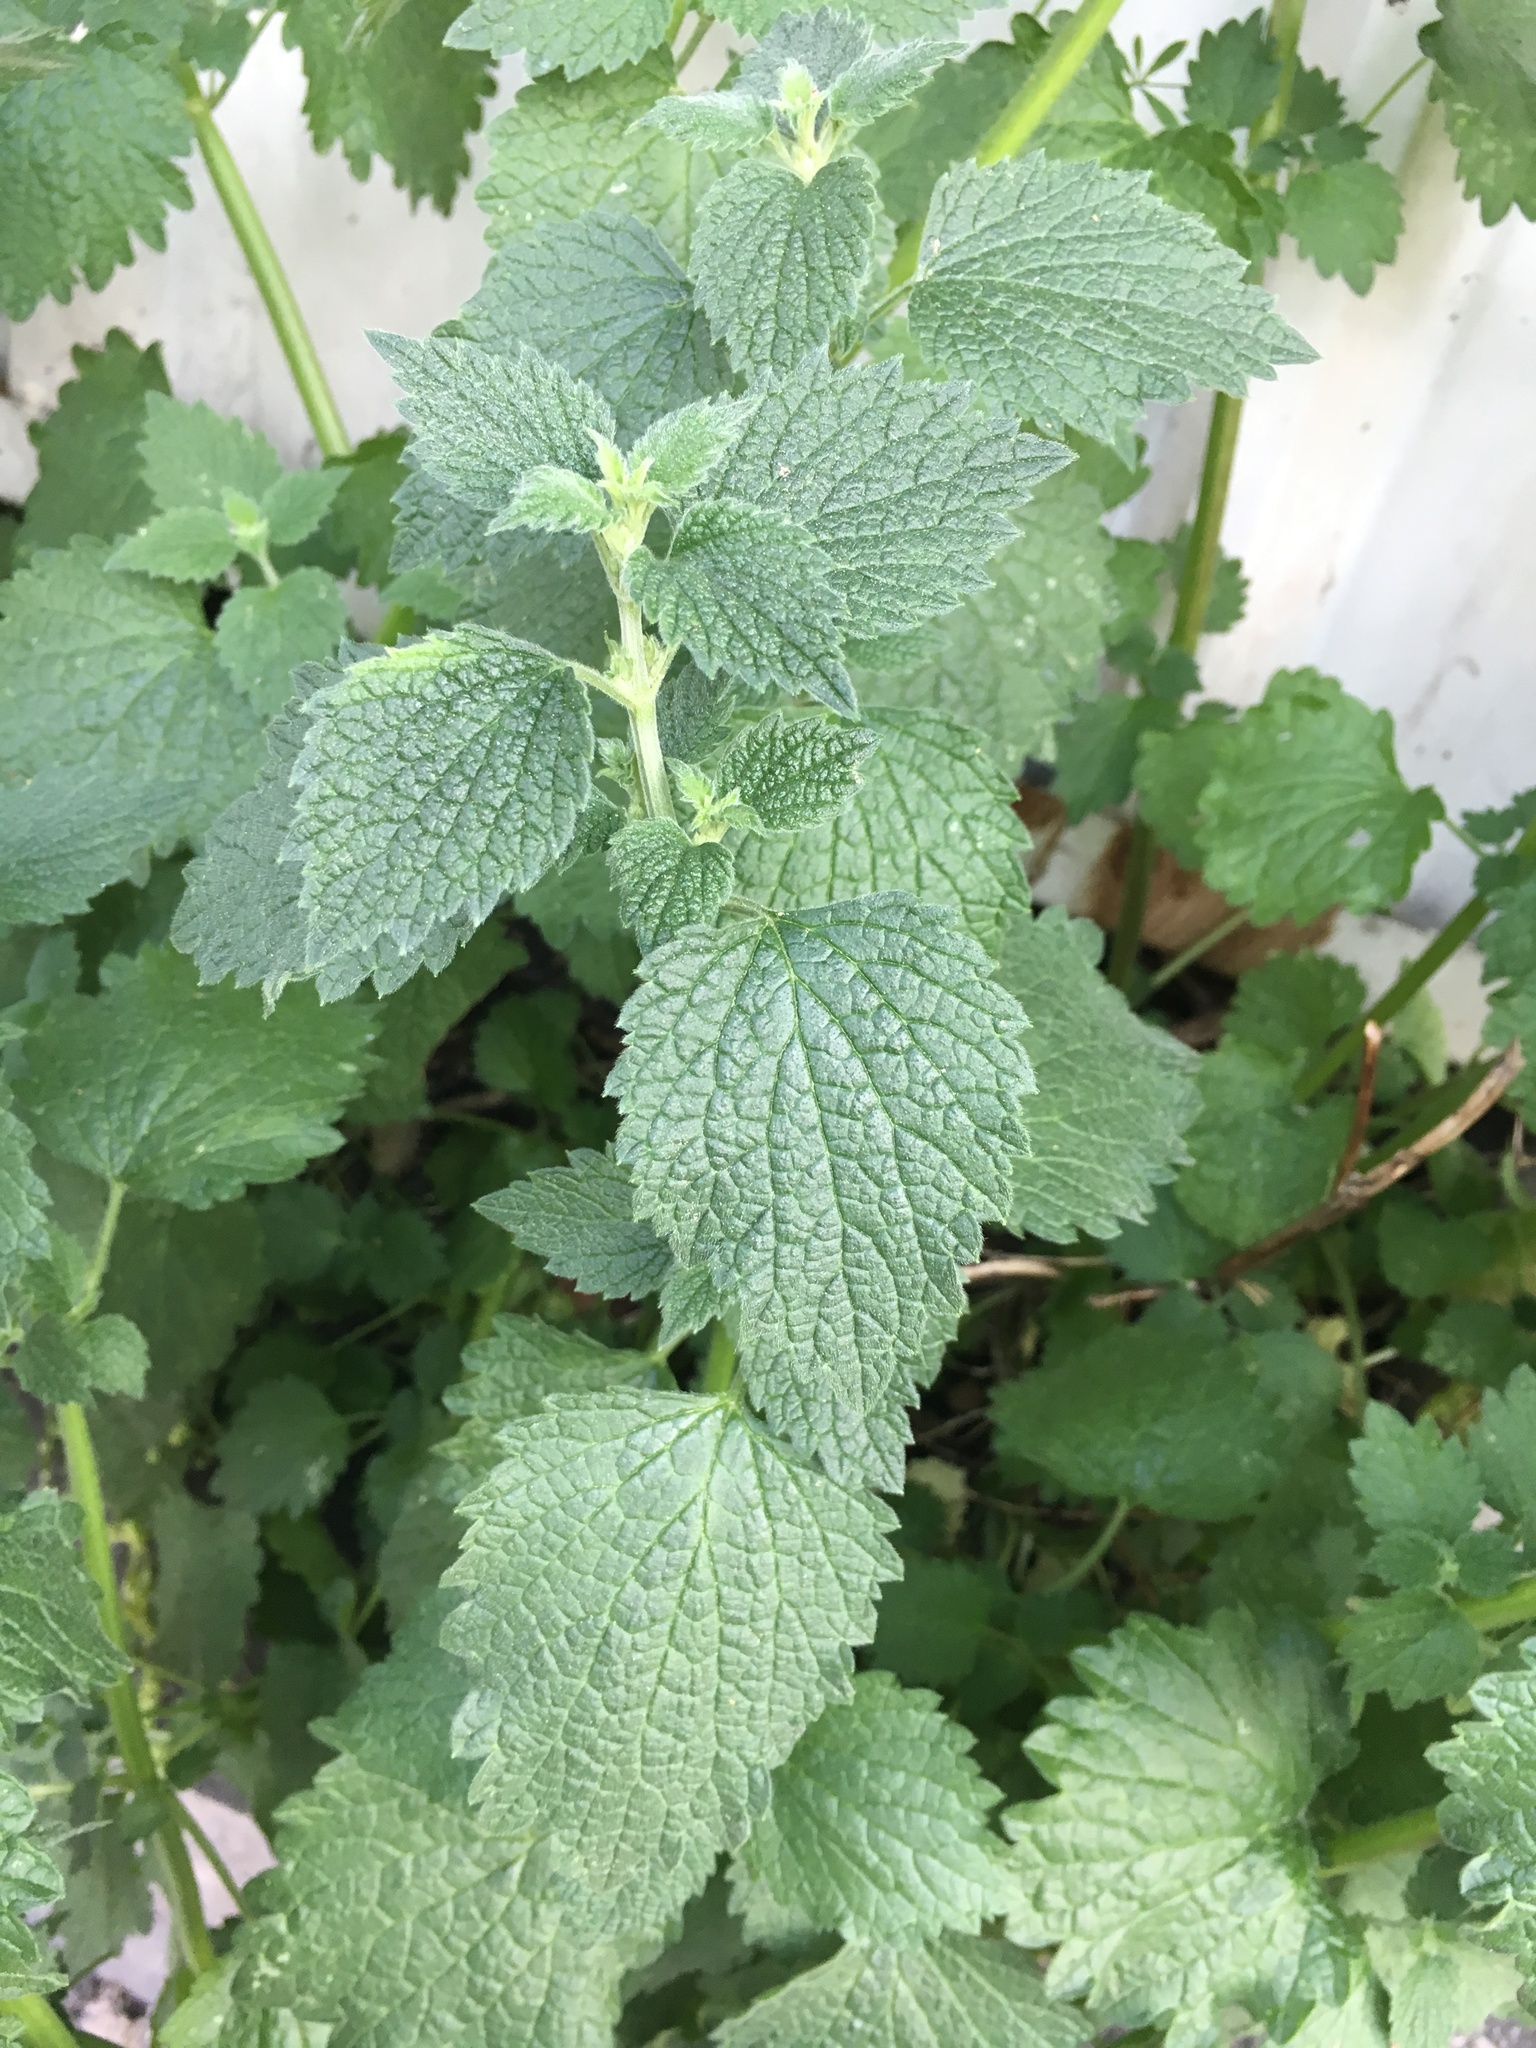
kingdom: Plantae
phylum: Tracheophyta
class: Magnoliopsida
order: Lamiales
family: Lamiaceae
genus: Ballota
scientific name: Ballota nigra
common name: Black horehound
